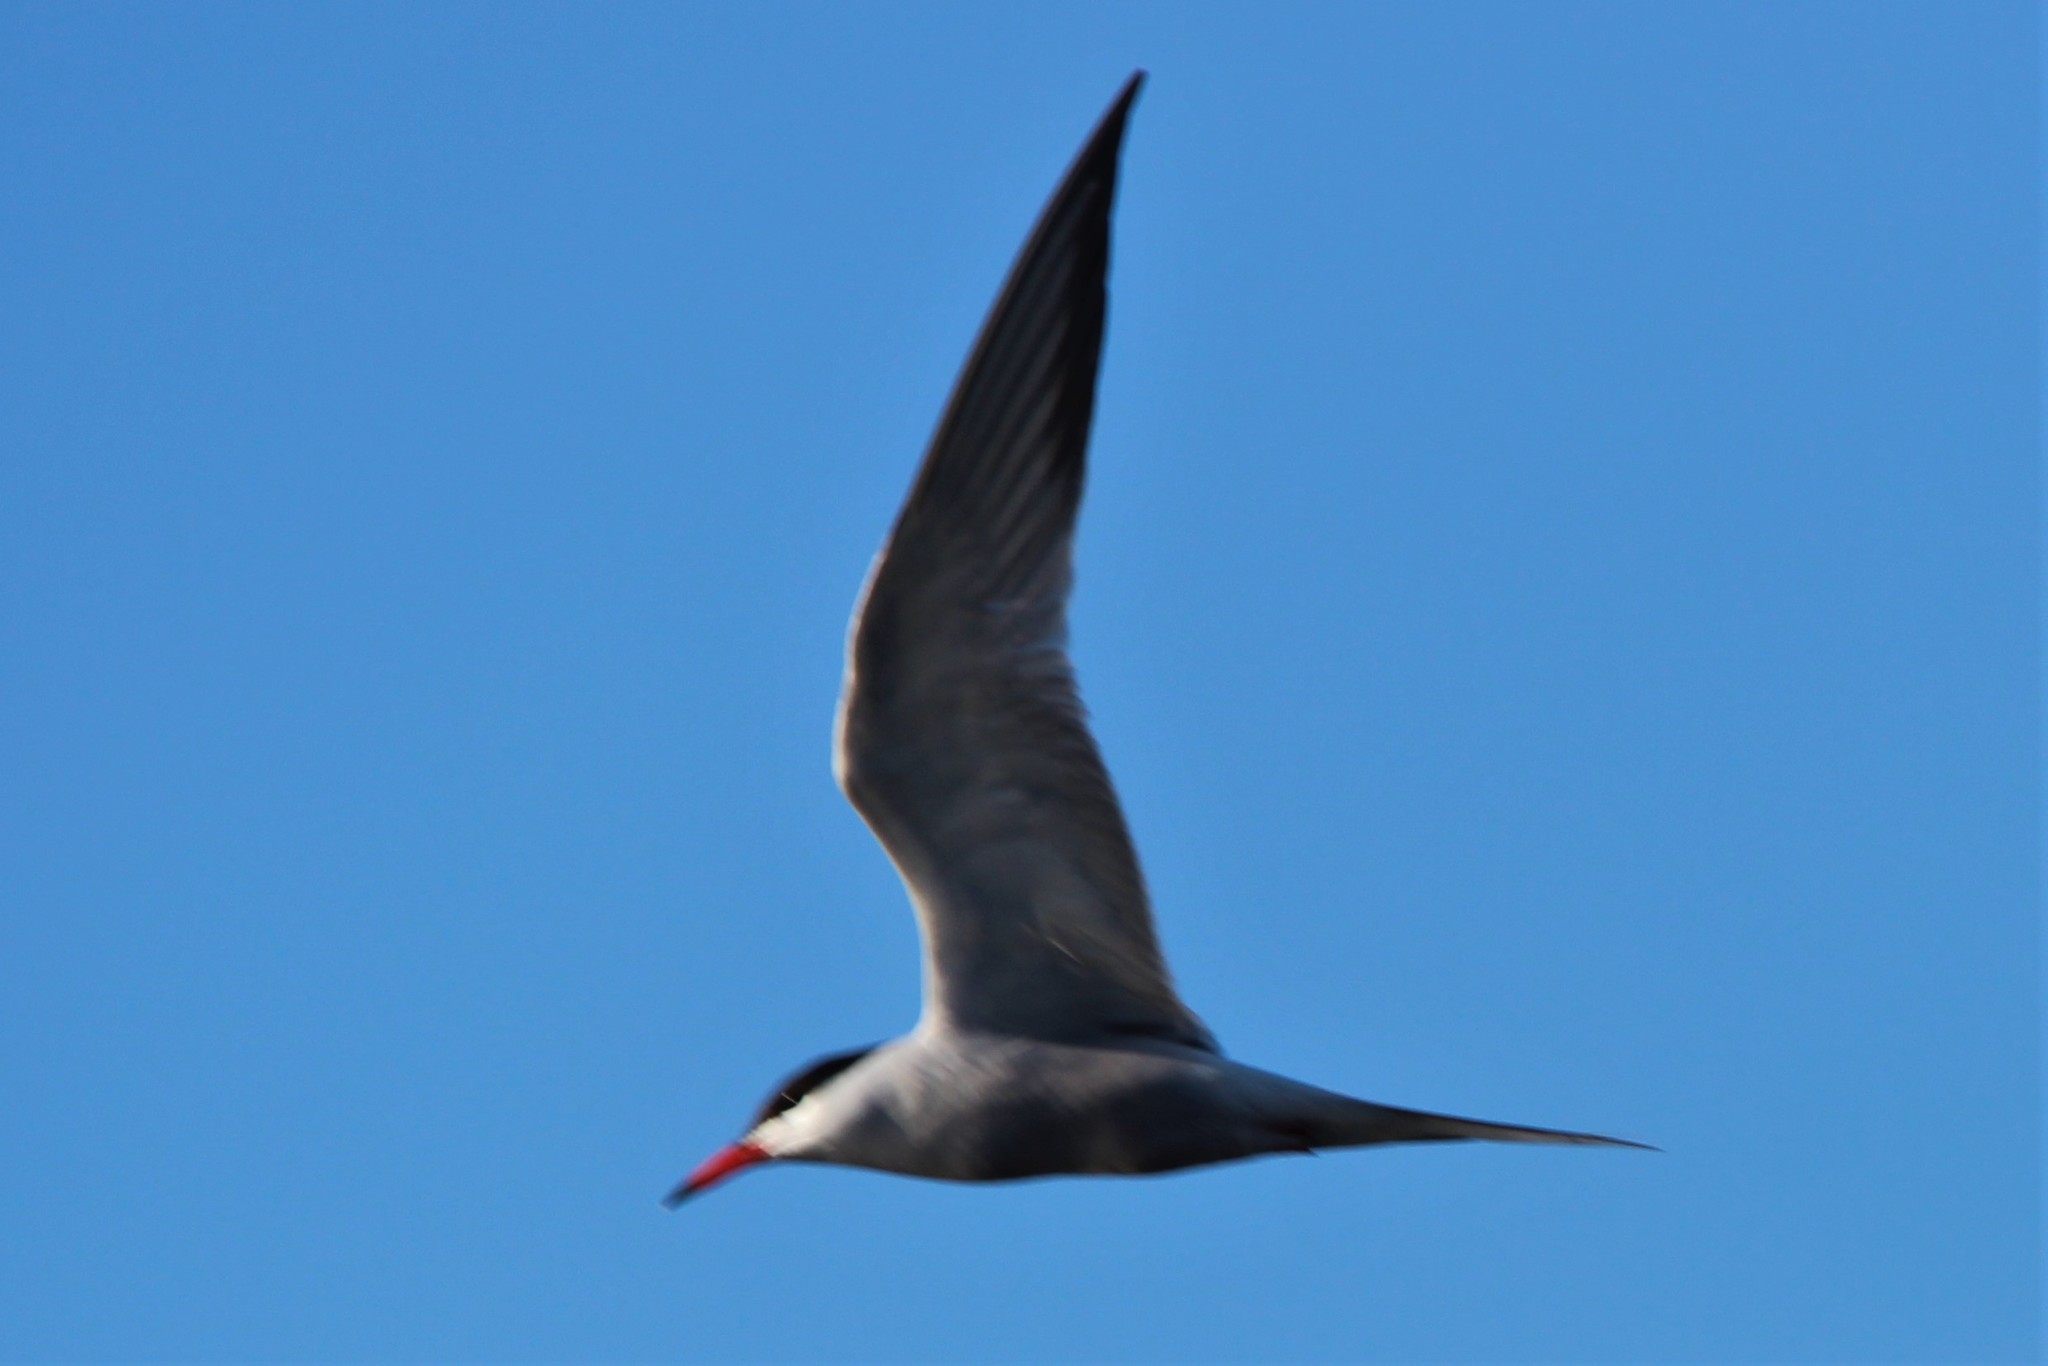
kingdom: Animalia
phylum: Chordata
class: Aves
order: Charadriiformes
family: Laridae
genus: Sterna
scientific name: Sterna hirundo
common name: Common tern
